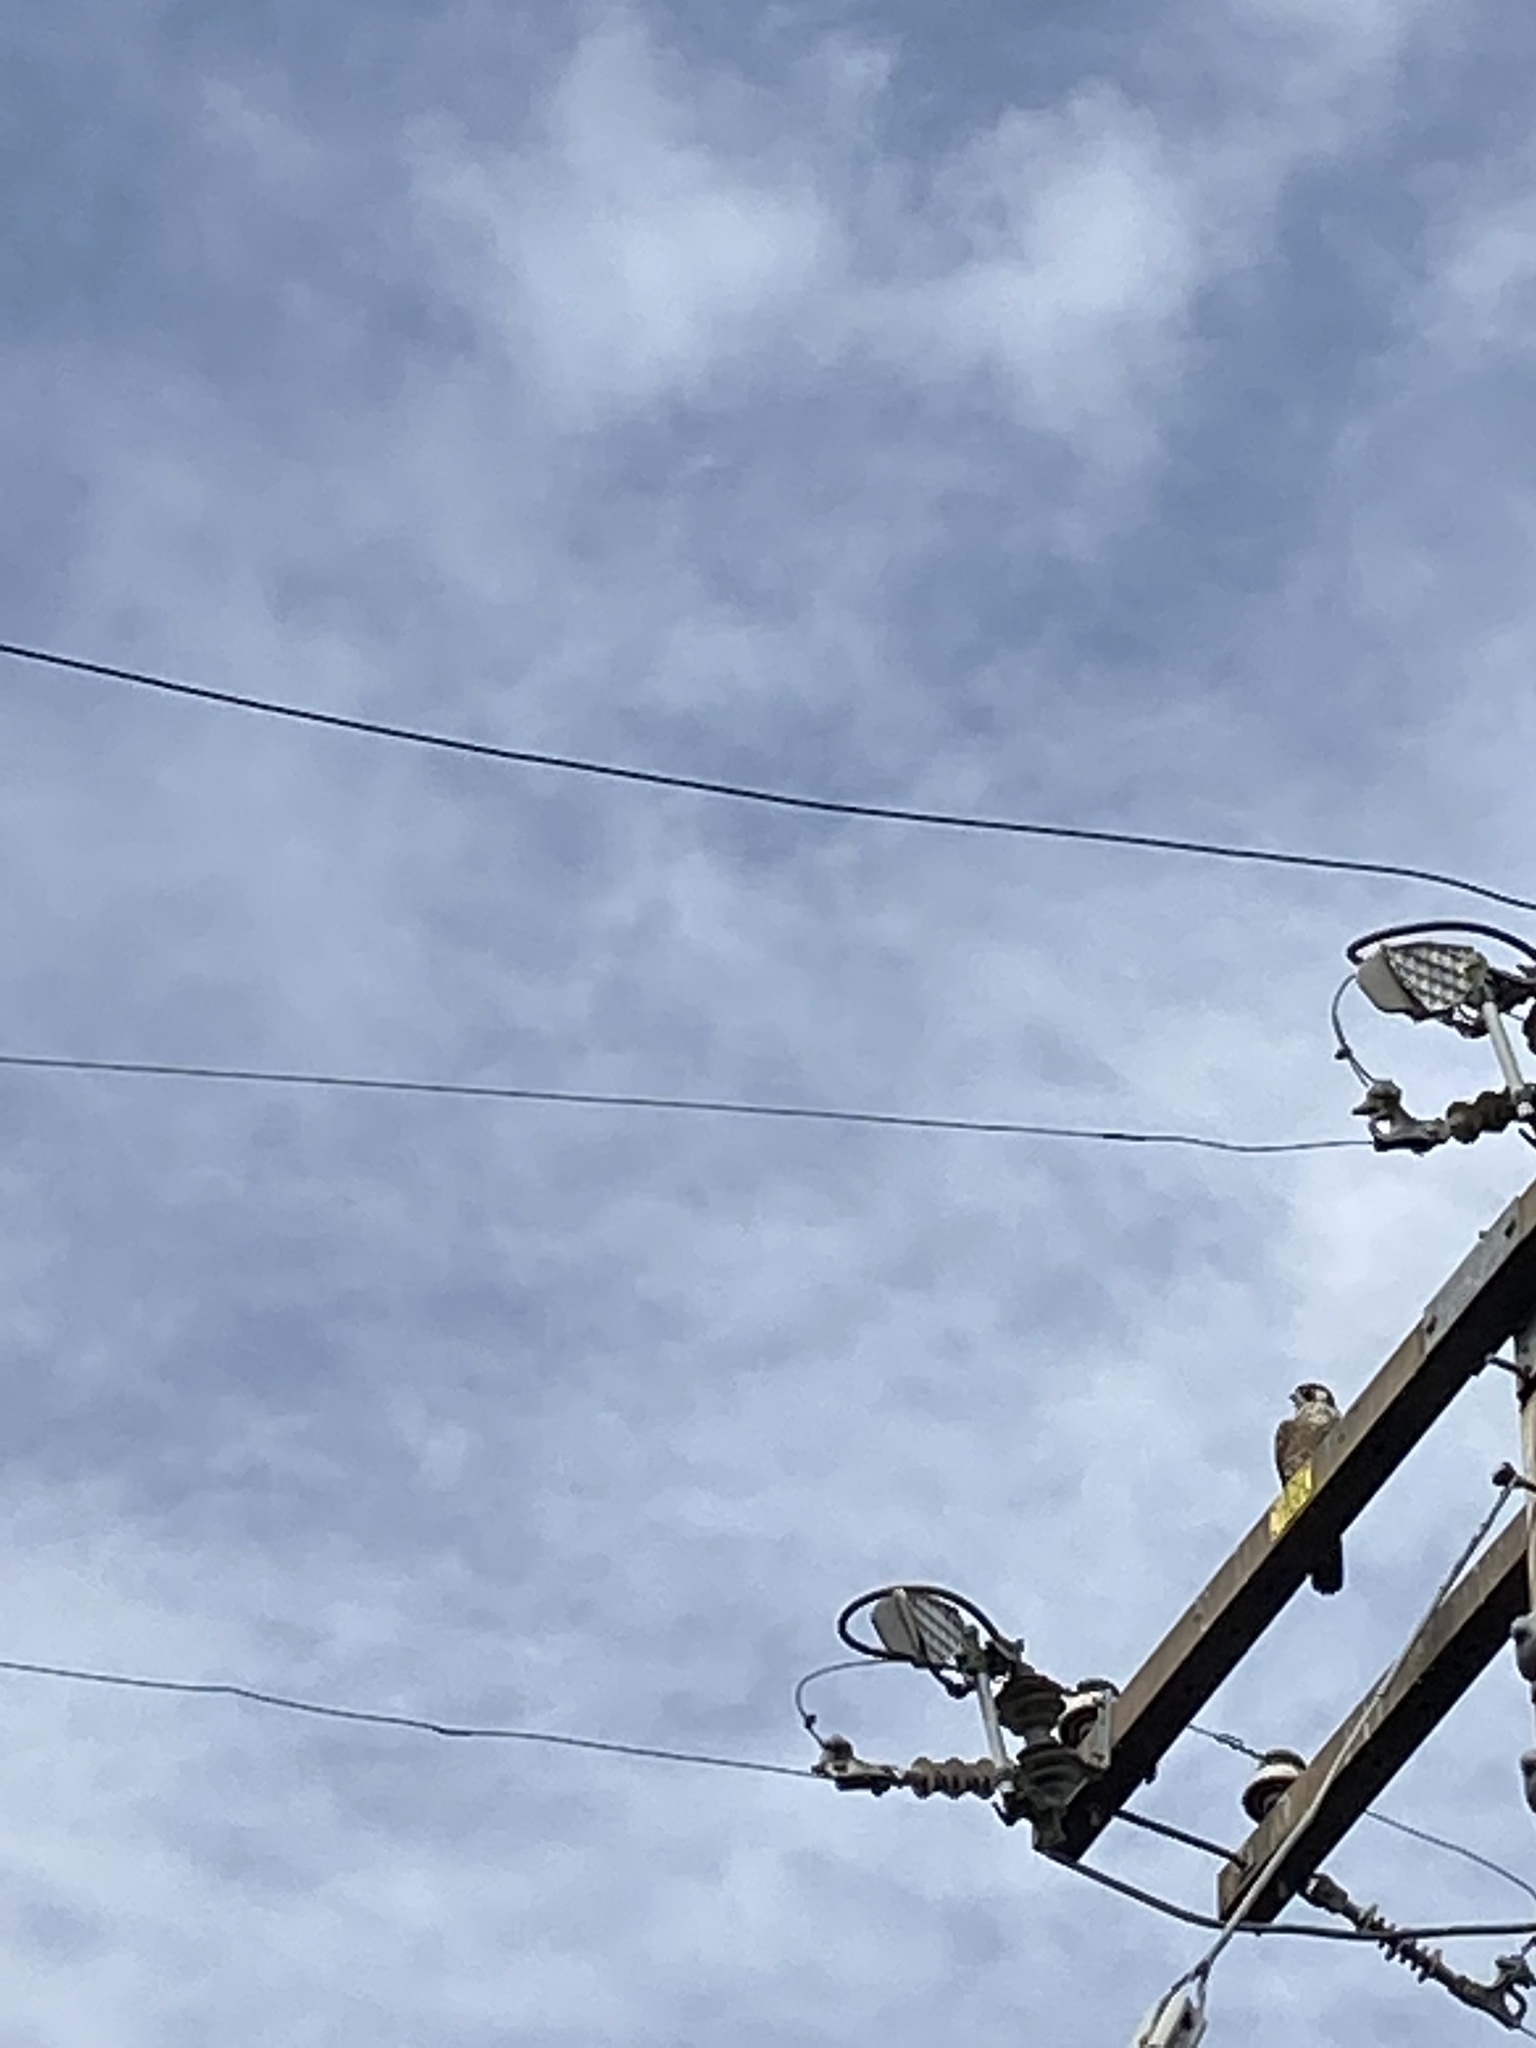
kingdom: Animalia
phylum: Chordata
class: Aves
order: Falconiformes
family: Falconidae
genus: Falco
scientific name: Falco peregrinus
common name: Peregrine falcon
